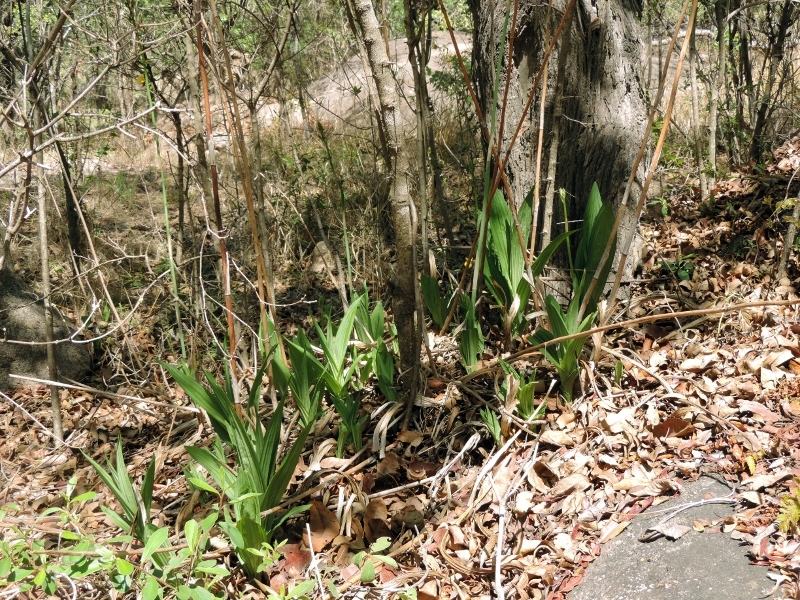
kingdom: Plantae
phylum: Tracheophyta
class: Liliopsida
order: Asparagales
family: Orchidaceae
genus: Eulophia
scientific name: Eulophia streptopetala
